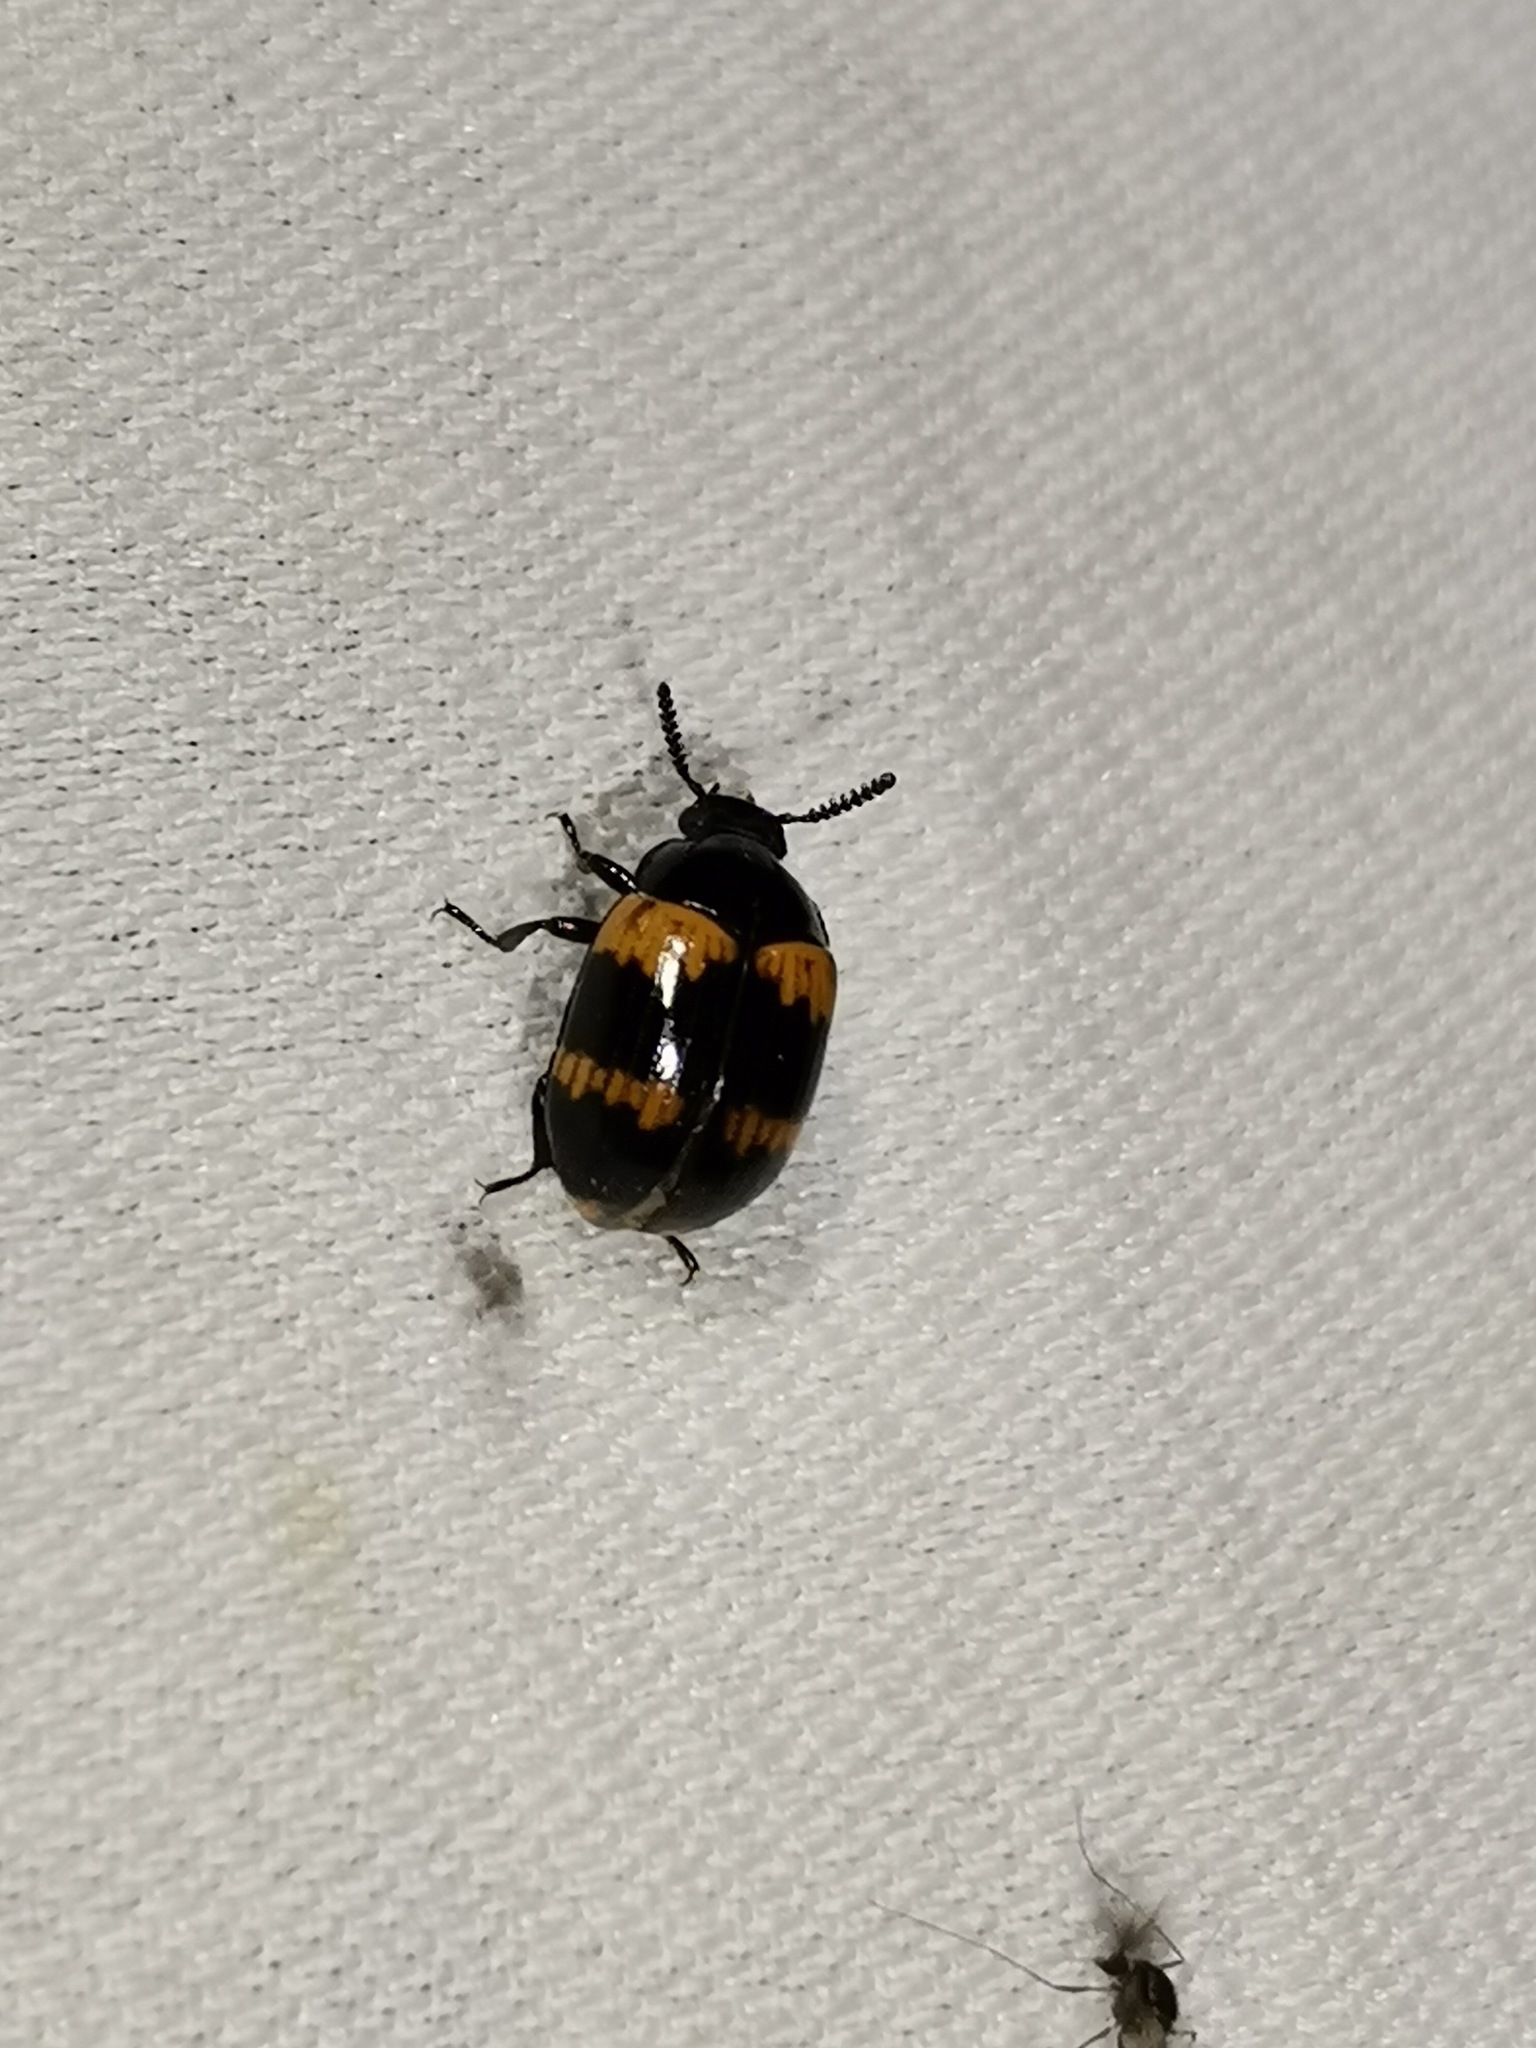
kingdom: Animalia
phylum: Arthropoda
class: Insecta
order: Coleoptera
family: Tenebrionidae
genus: Diaperis
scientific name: Diaperis boleti
